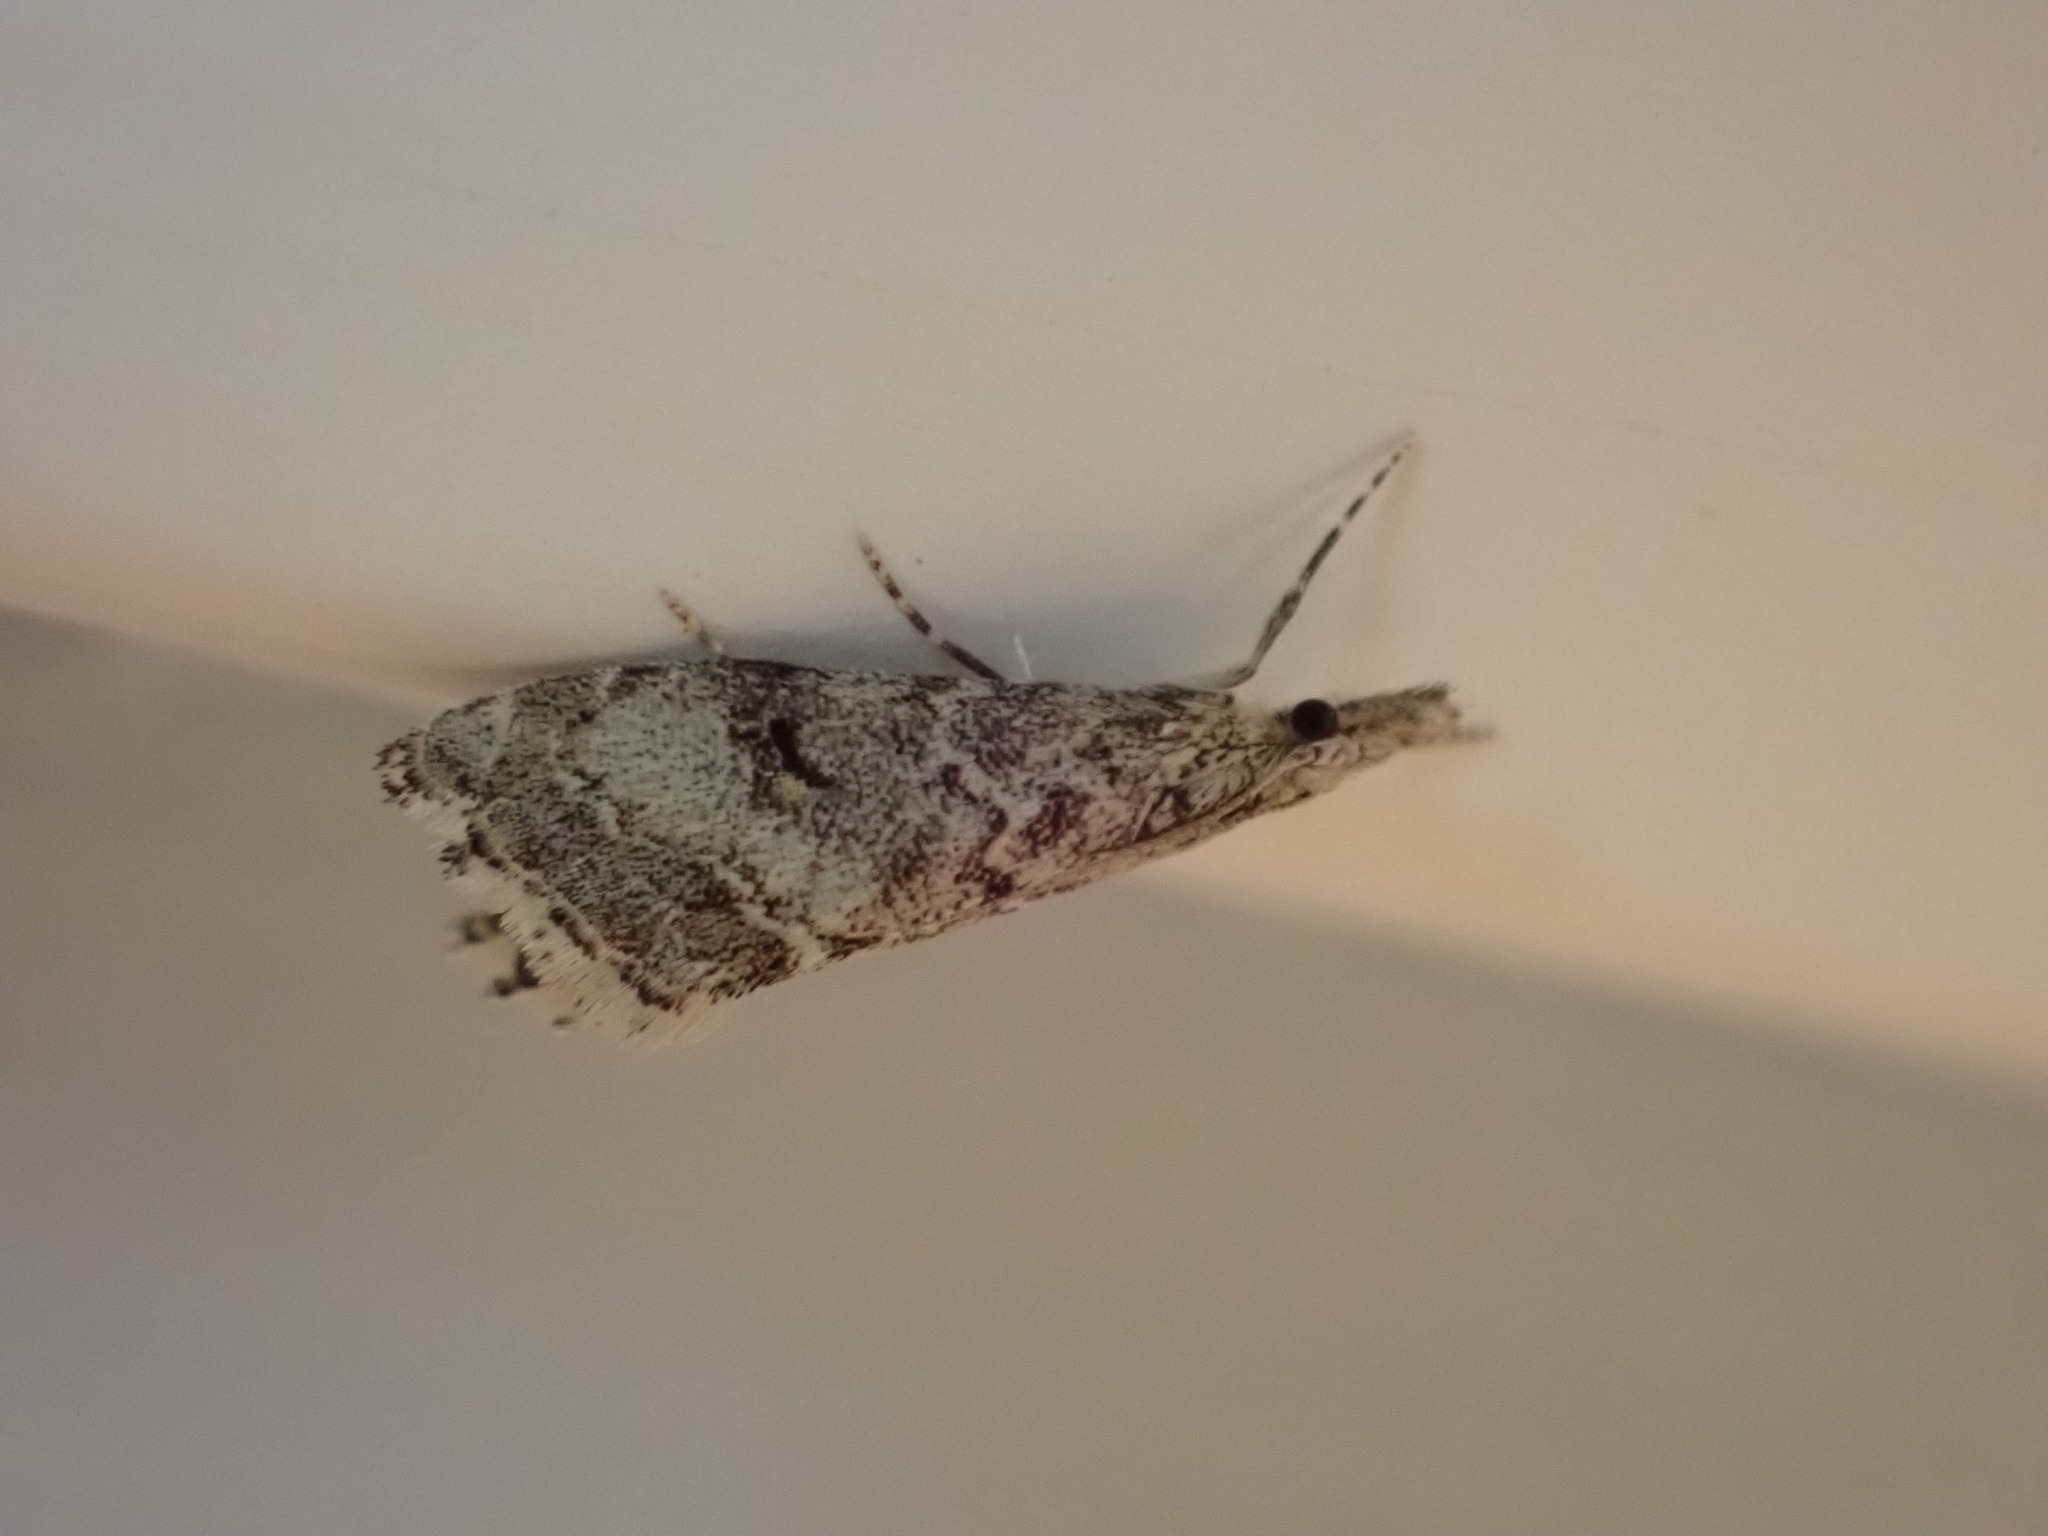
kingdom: Animalia
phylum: Arthropoda
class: Insecta
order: Lepidoptera
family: Crambidae
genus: Glaucocharis
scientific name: Glaucocharis elaina
